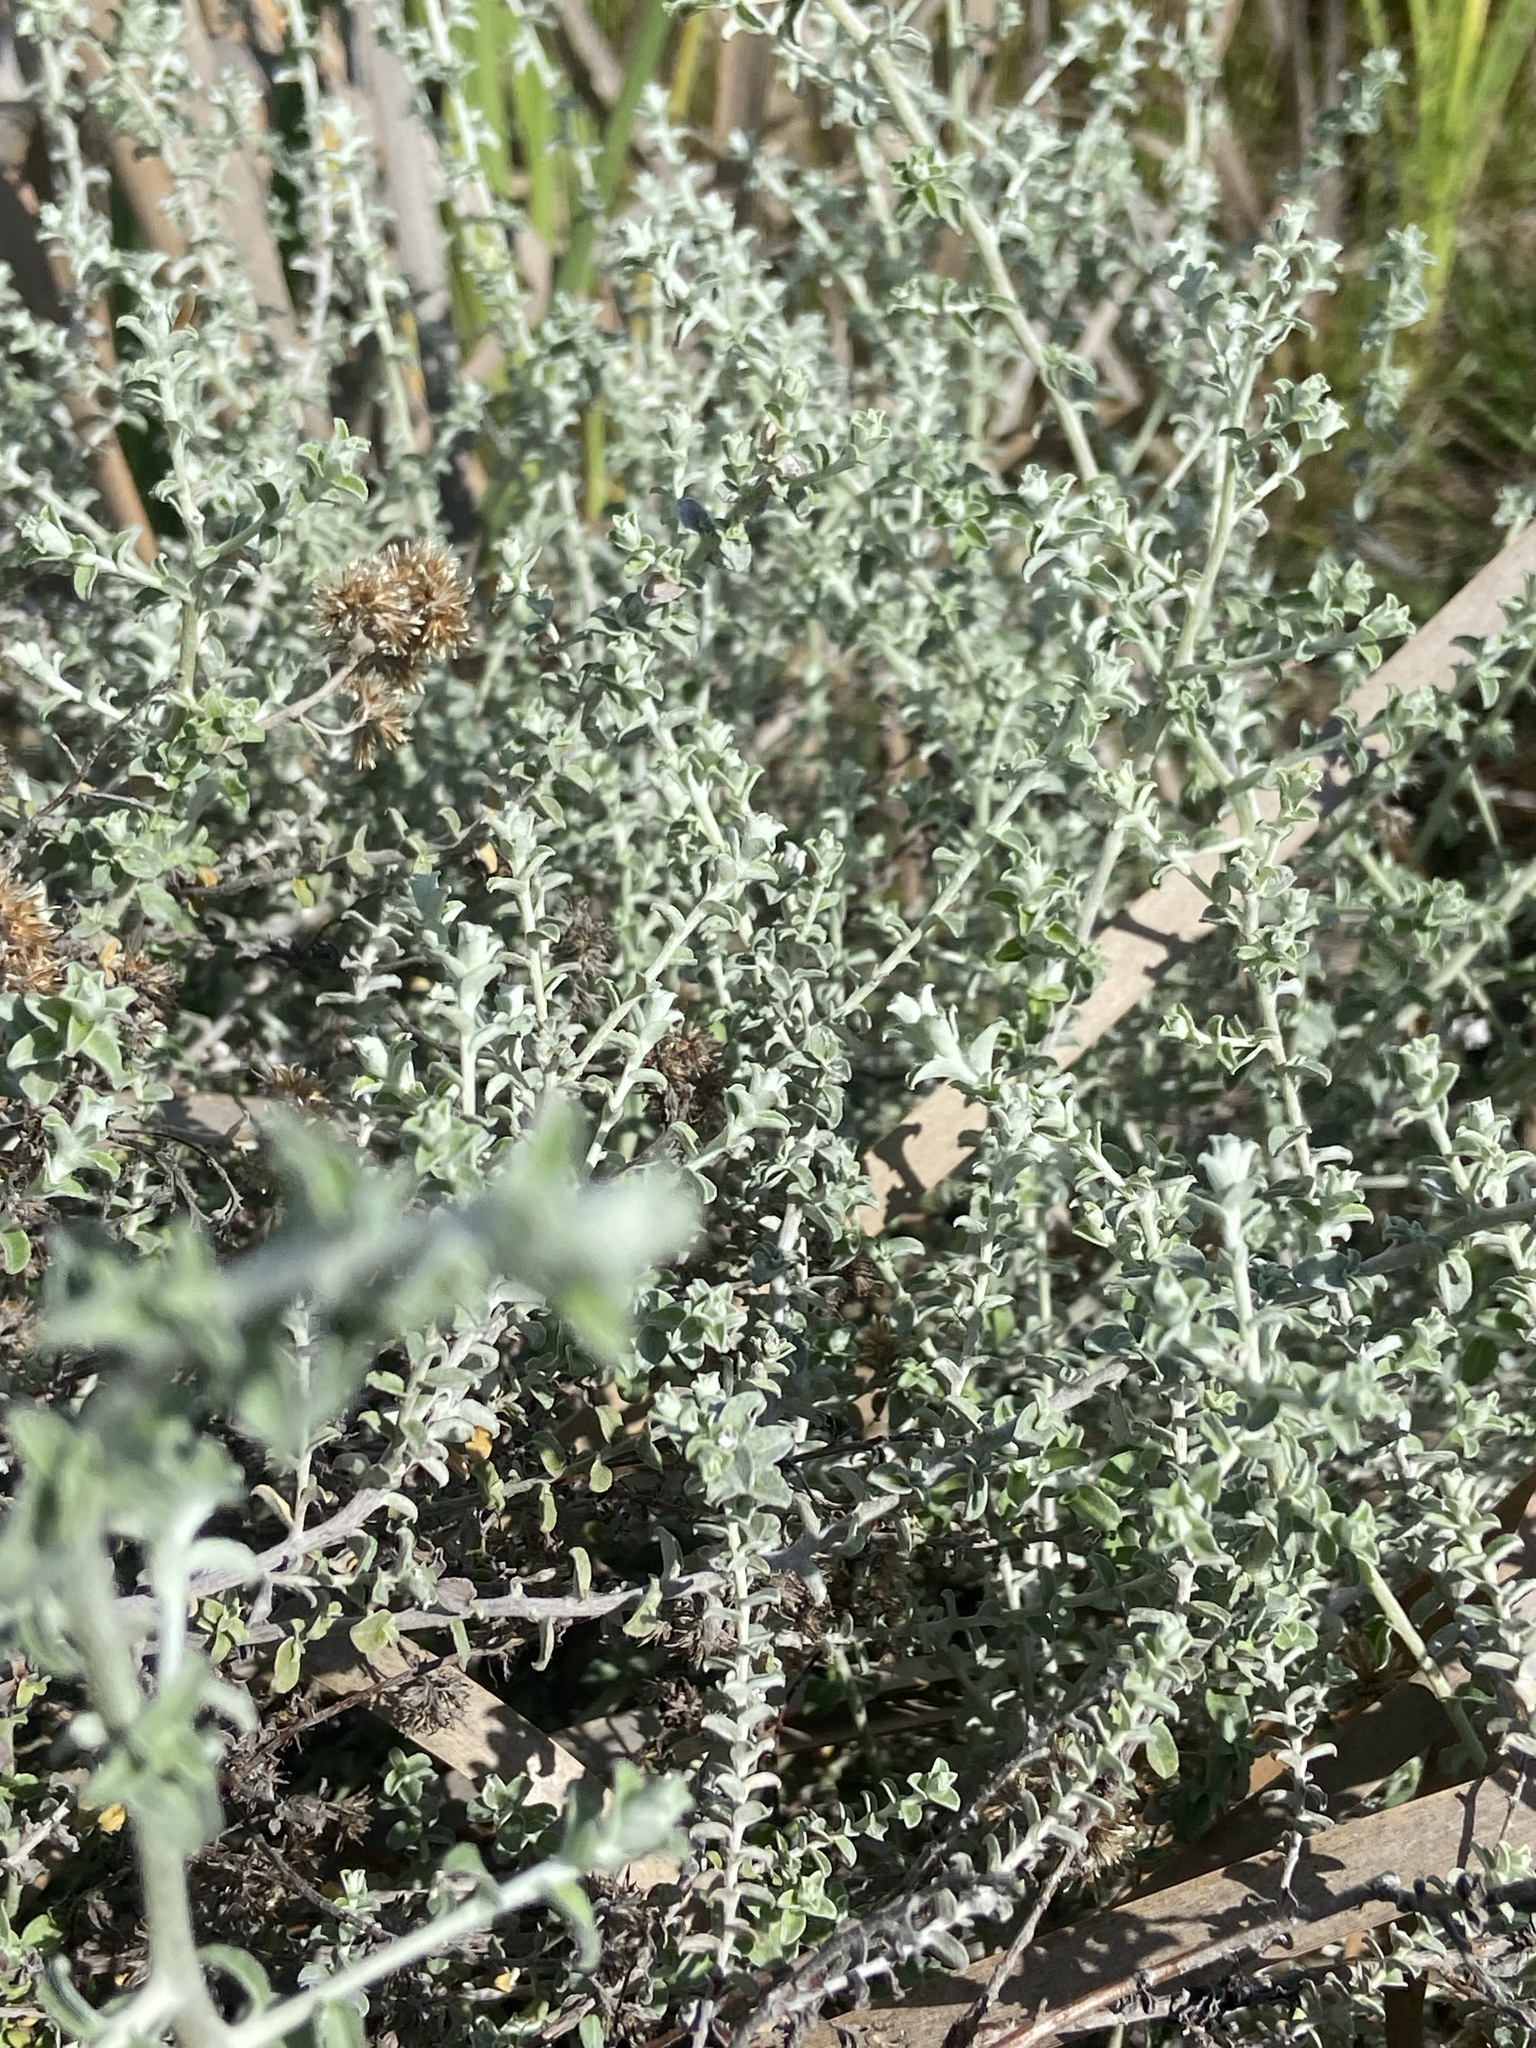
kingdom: Plantae
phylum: Tracheophyta
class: Magnoliopsida
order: Asterales
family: Asteraceae
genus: Plecostachys
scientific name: Plecostachys serpyllifolia
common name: Petite licorice
